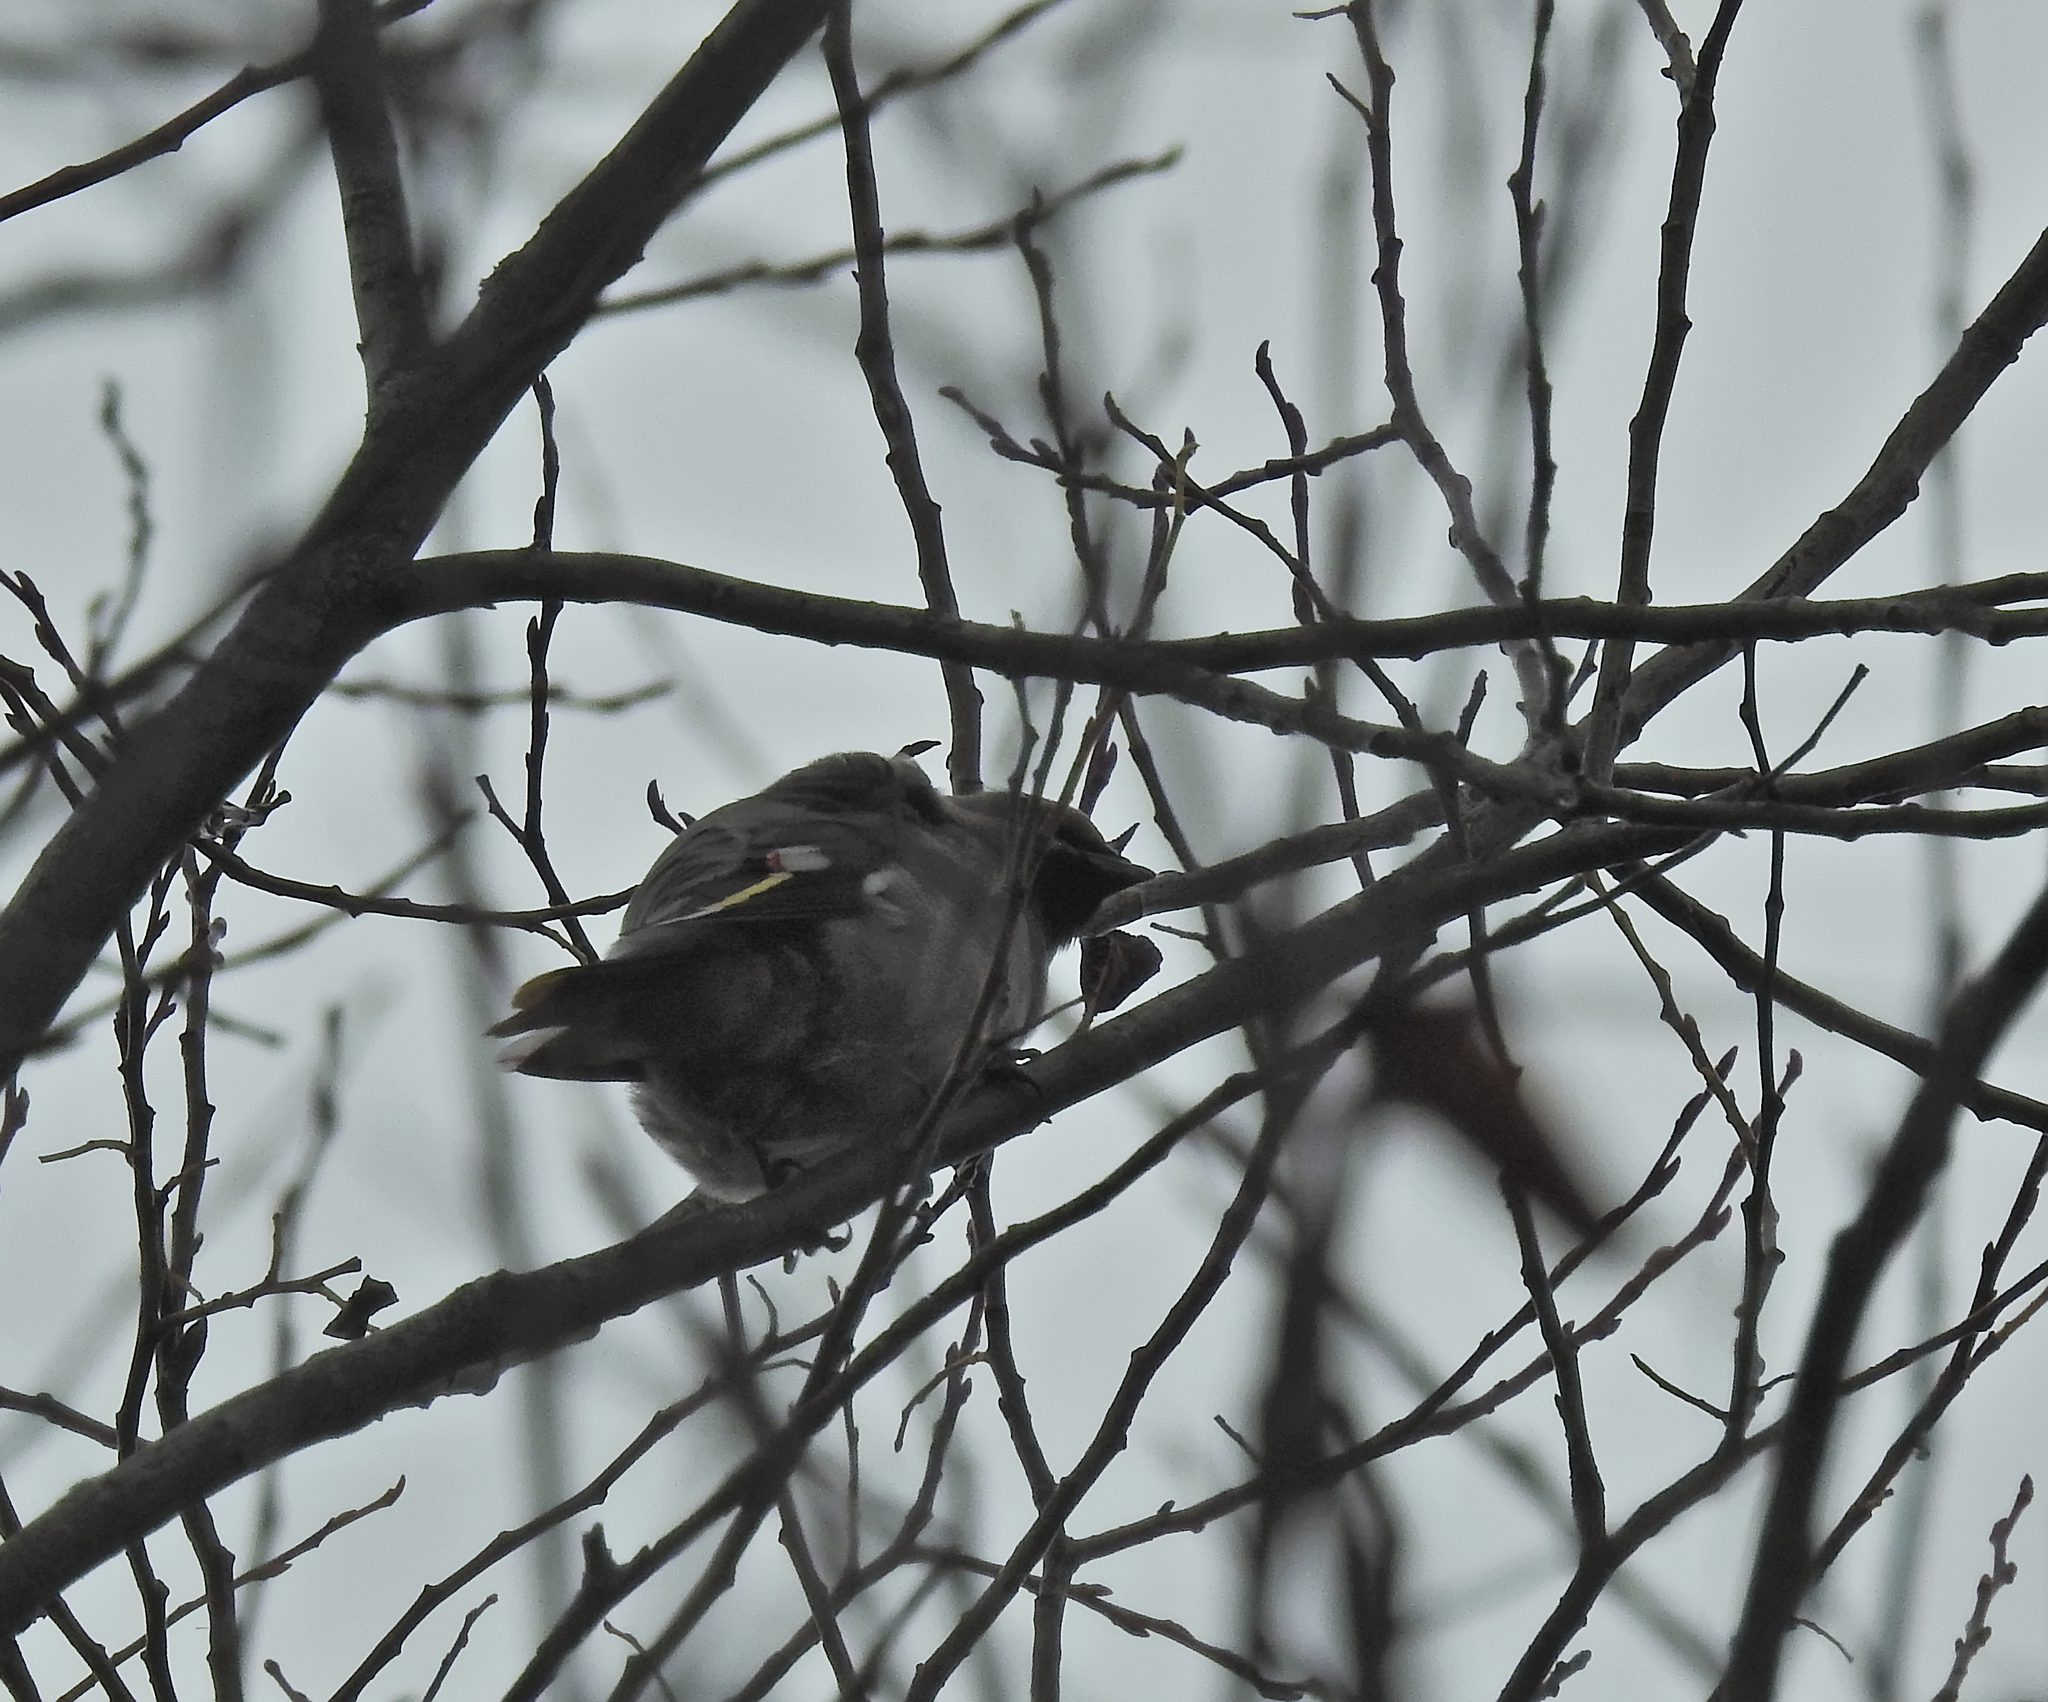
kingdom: Animalia
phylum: Chordata
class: Aves
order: Passeriformes
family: Bombycillidae
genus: Bombycilla
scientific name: Bombycilla garrulus
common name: Bohemian waxwing
